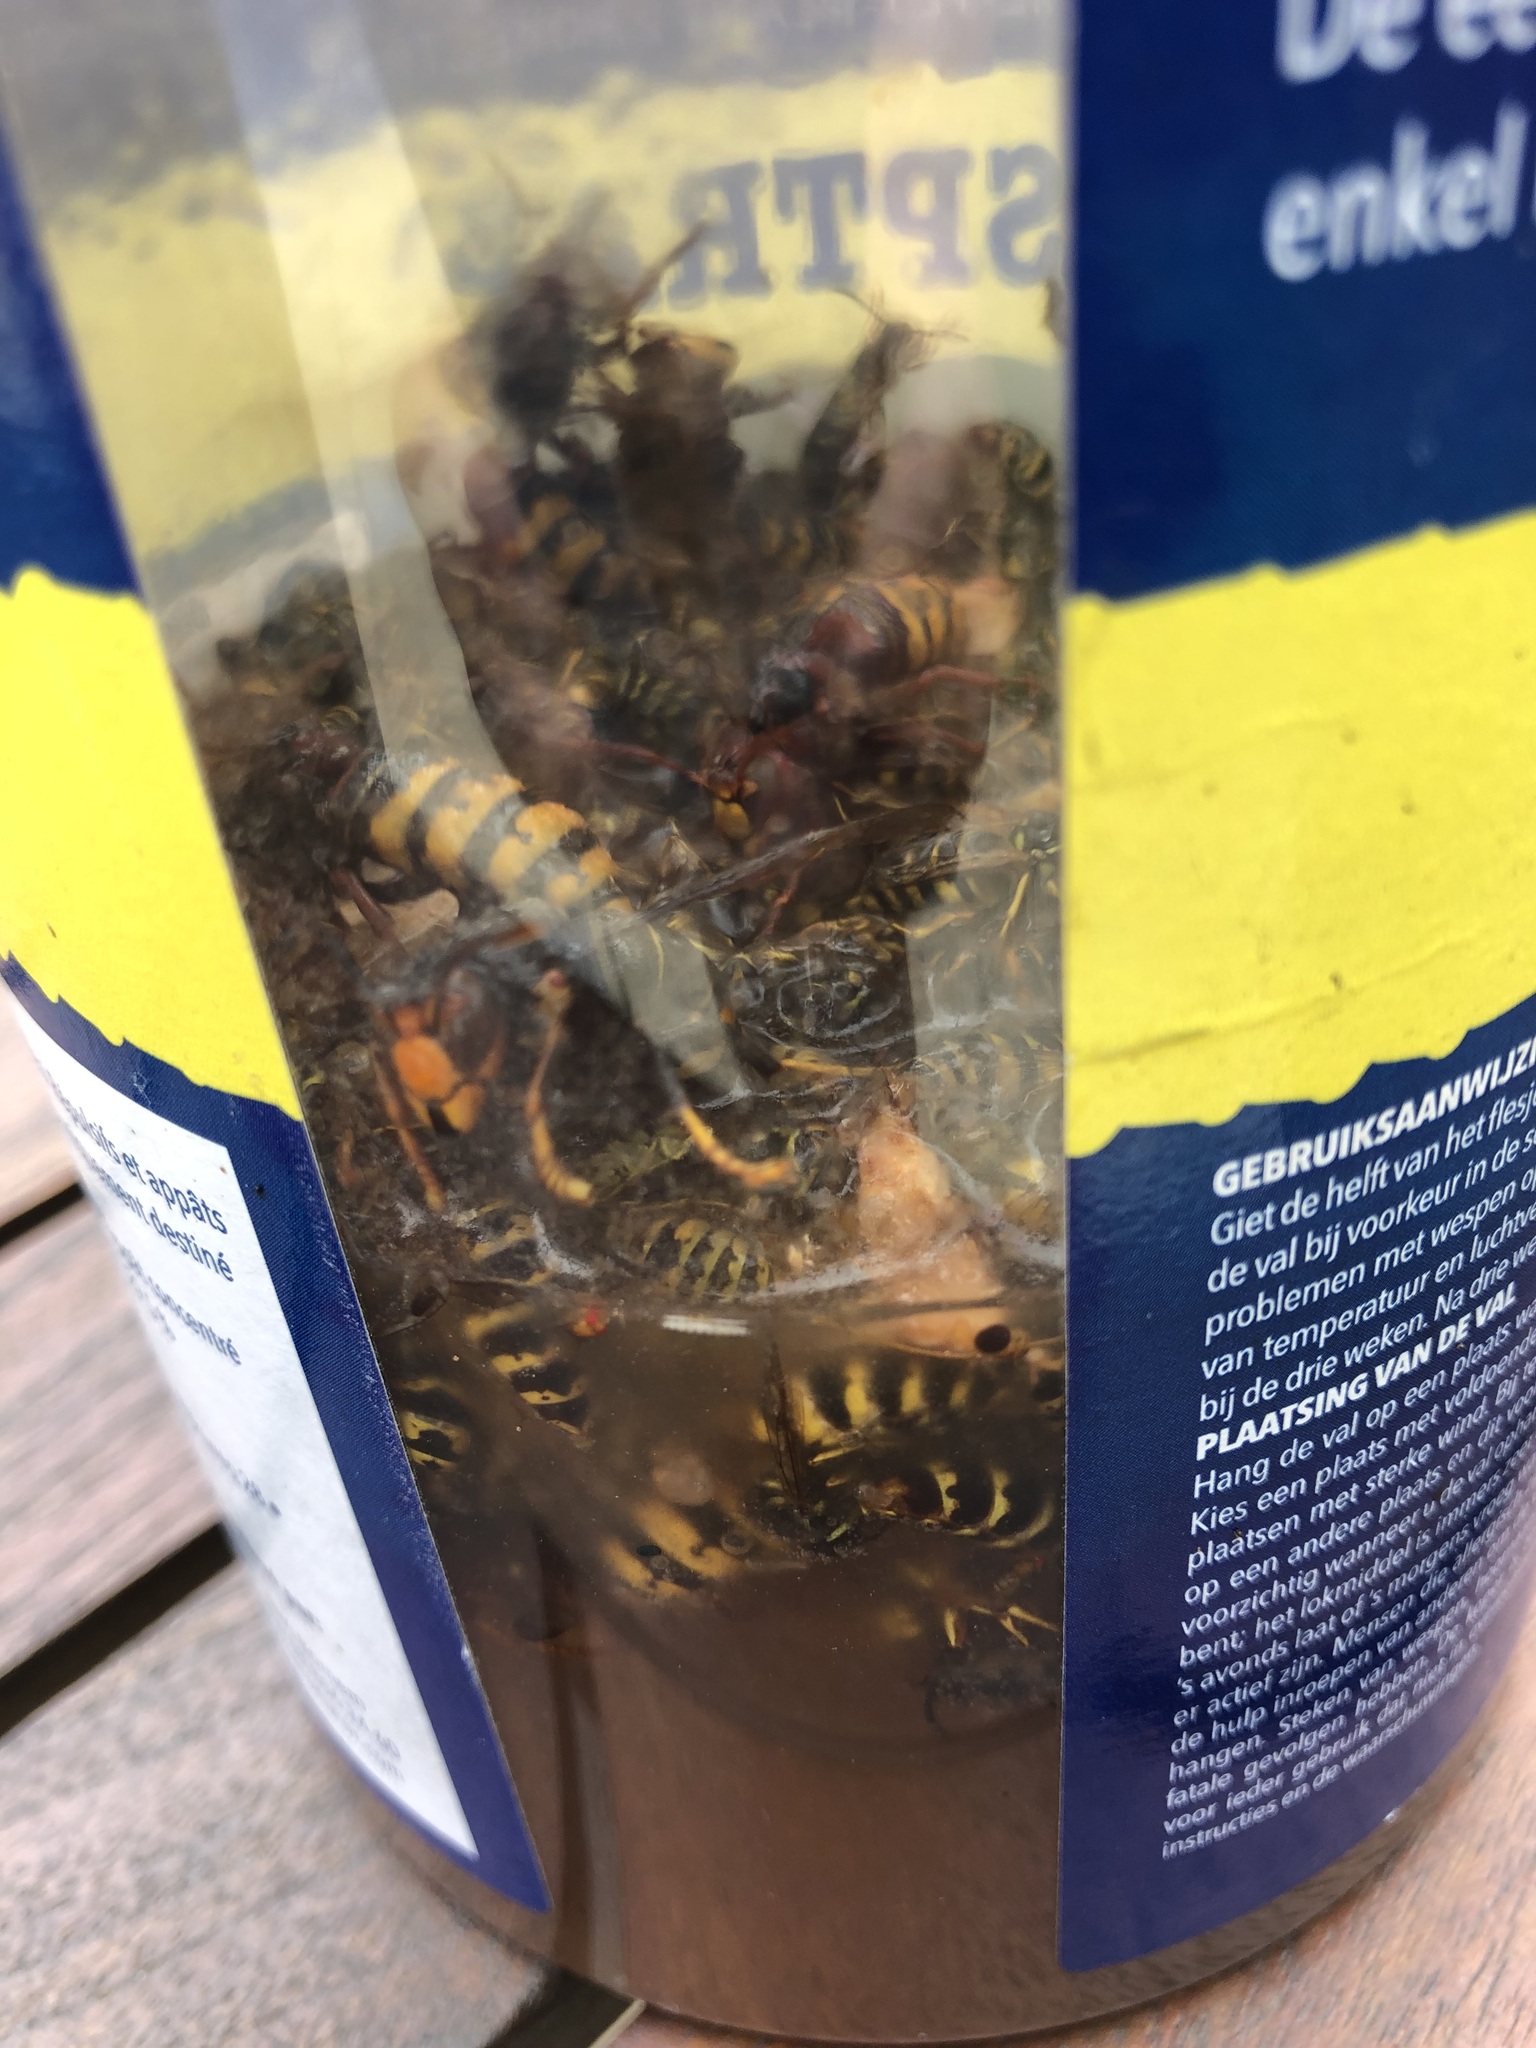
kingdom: Animalia
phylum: Arthropoda
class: Insecta
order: Hymenoptera
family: Vespidae
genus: Vespa
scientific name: Vespa velutina
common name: Asian hornet
